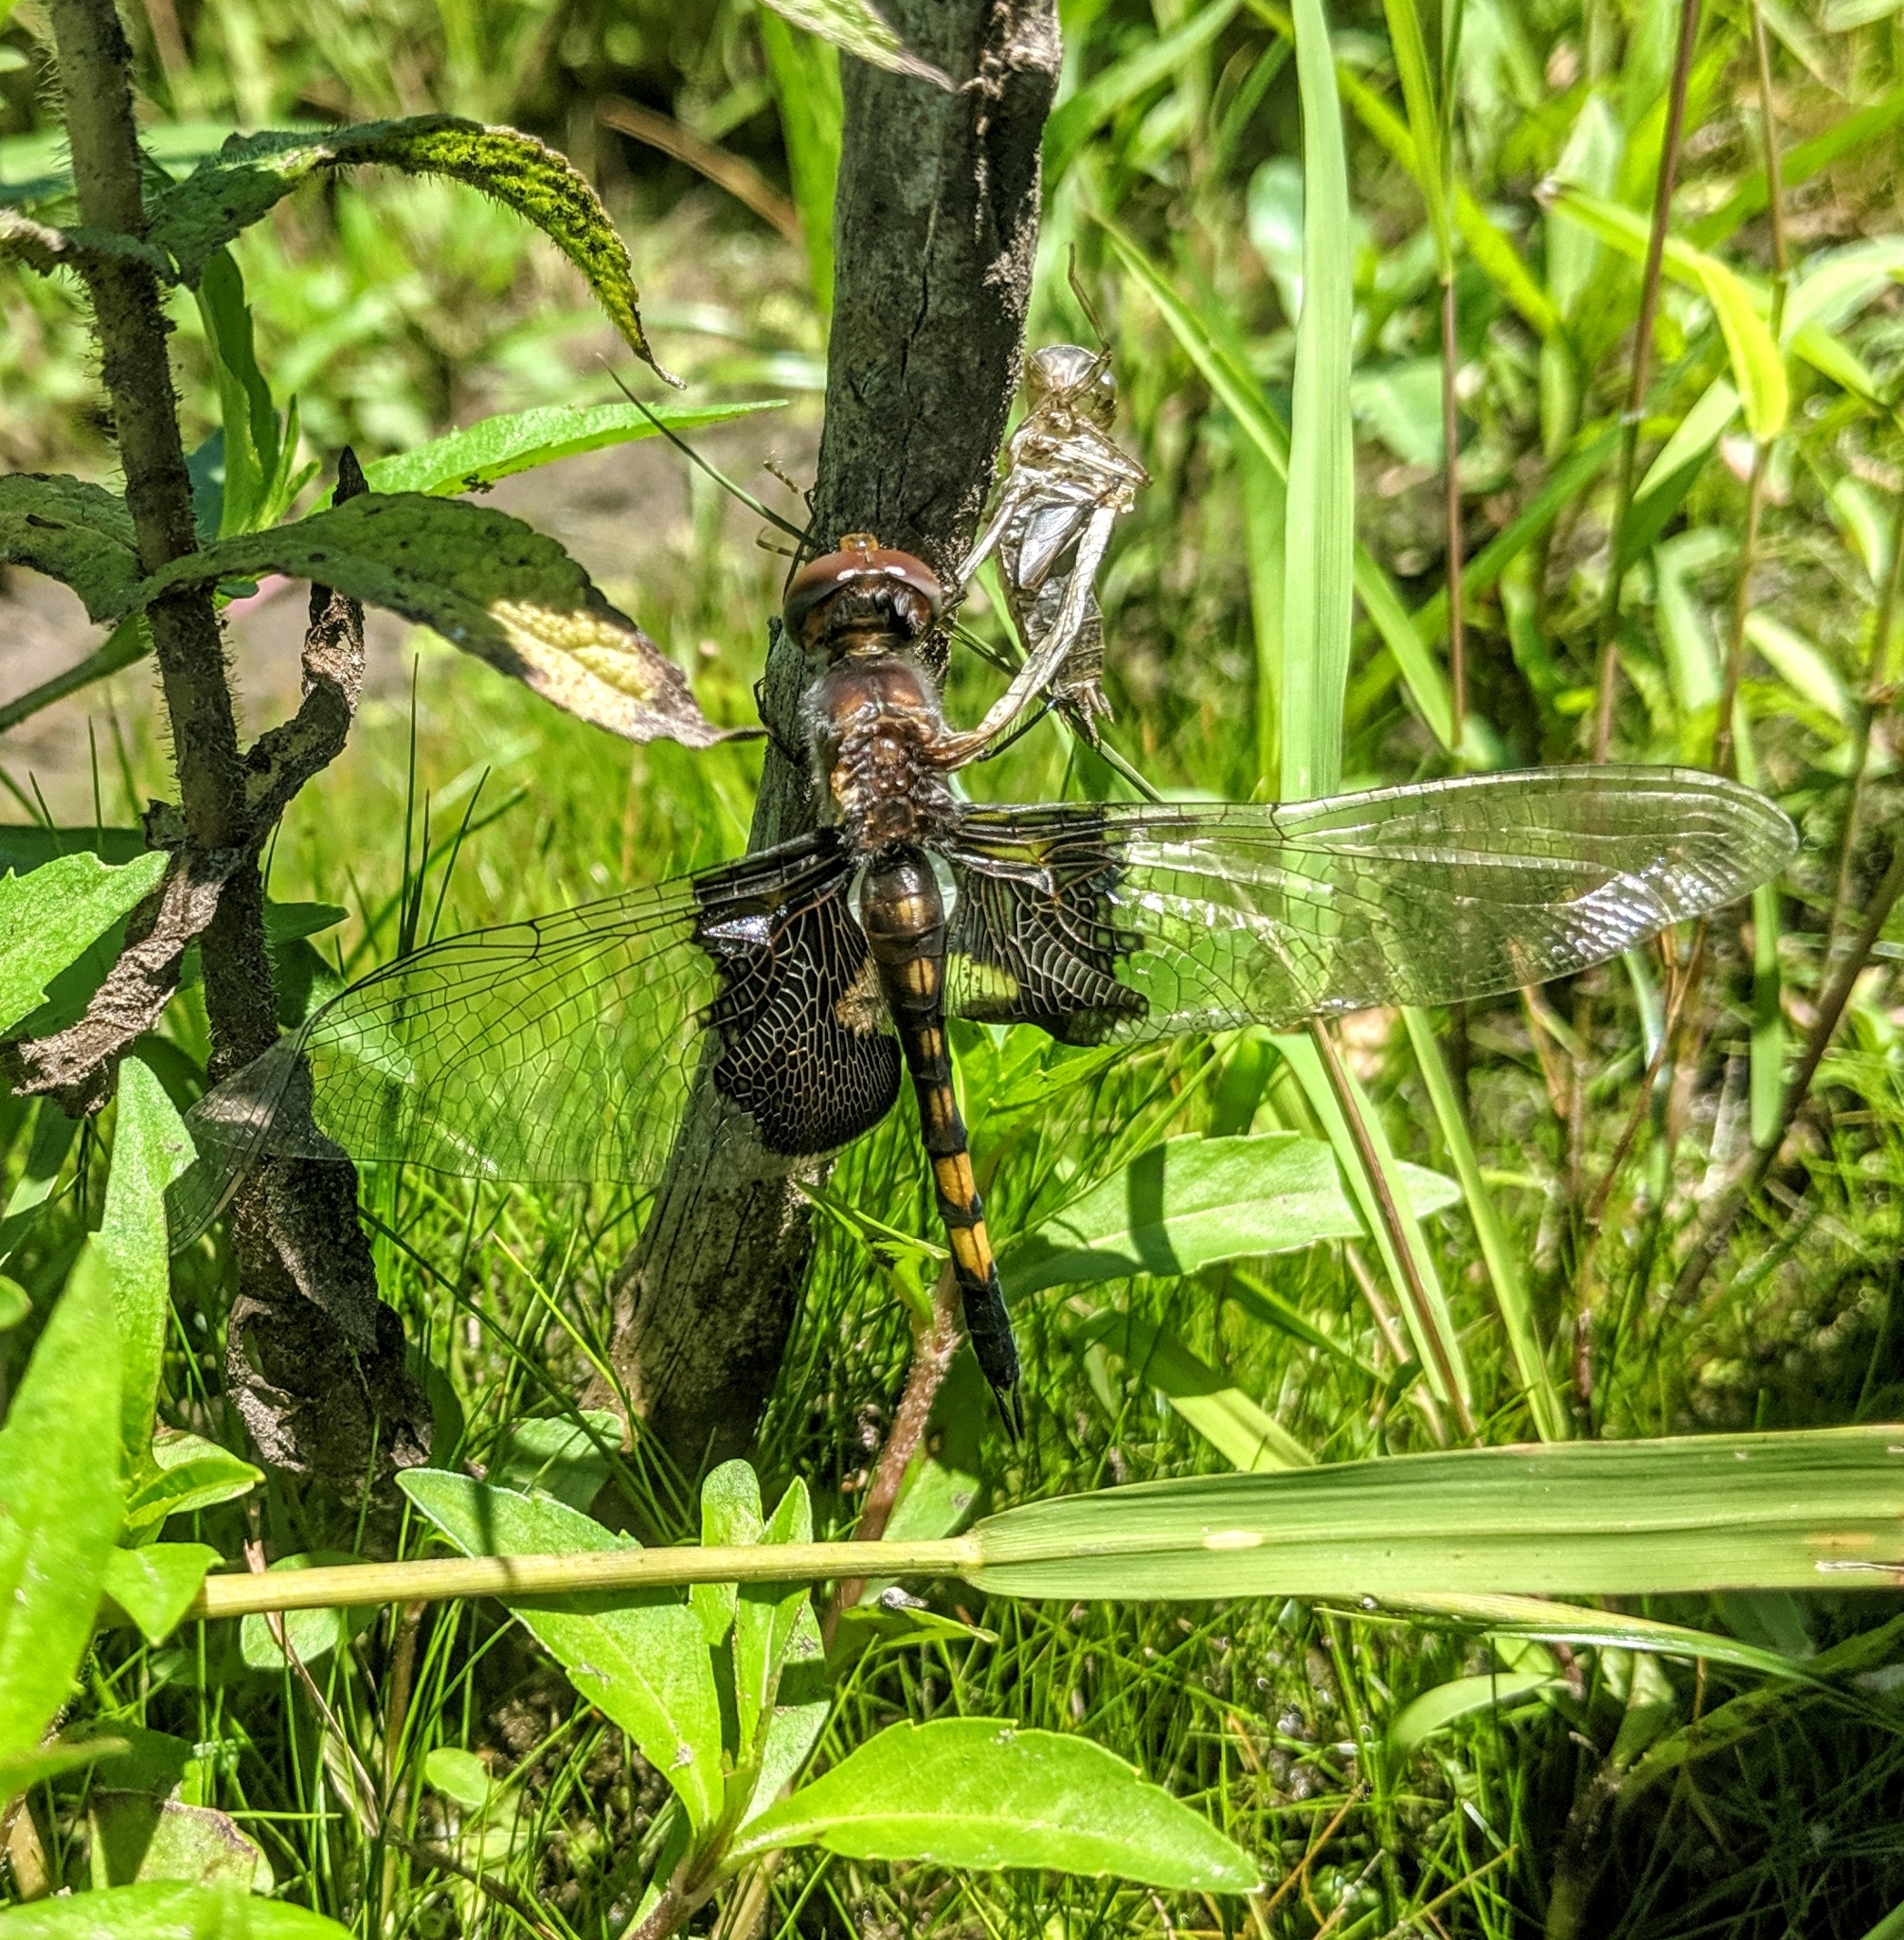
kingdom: Animalia
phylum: Arthropoda
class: Insecta
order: Odonata
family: Libellulidae
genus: Tramea
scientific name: Tramea lacerata
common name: Black saddlebags
